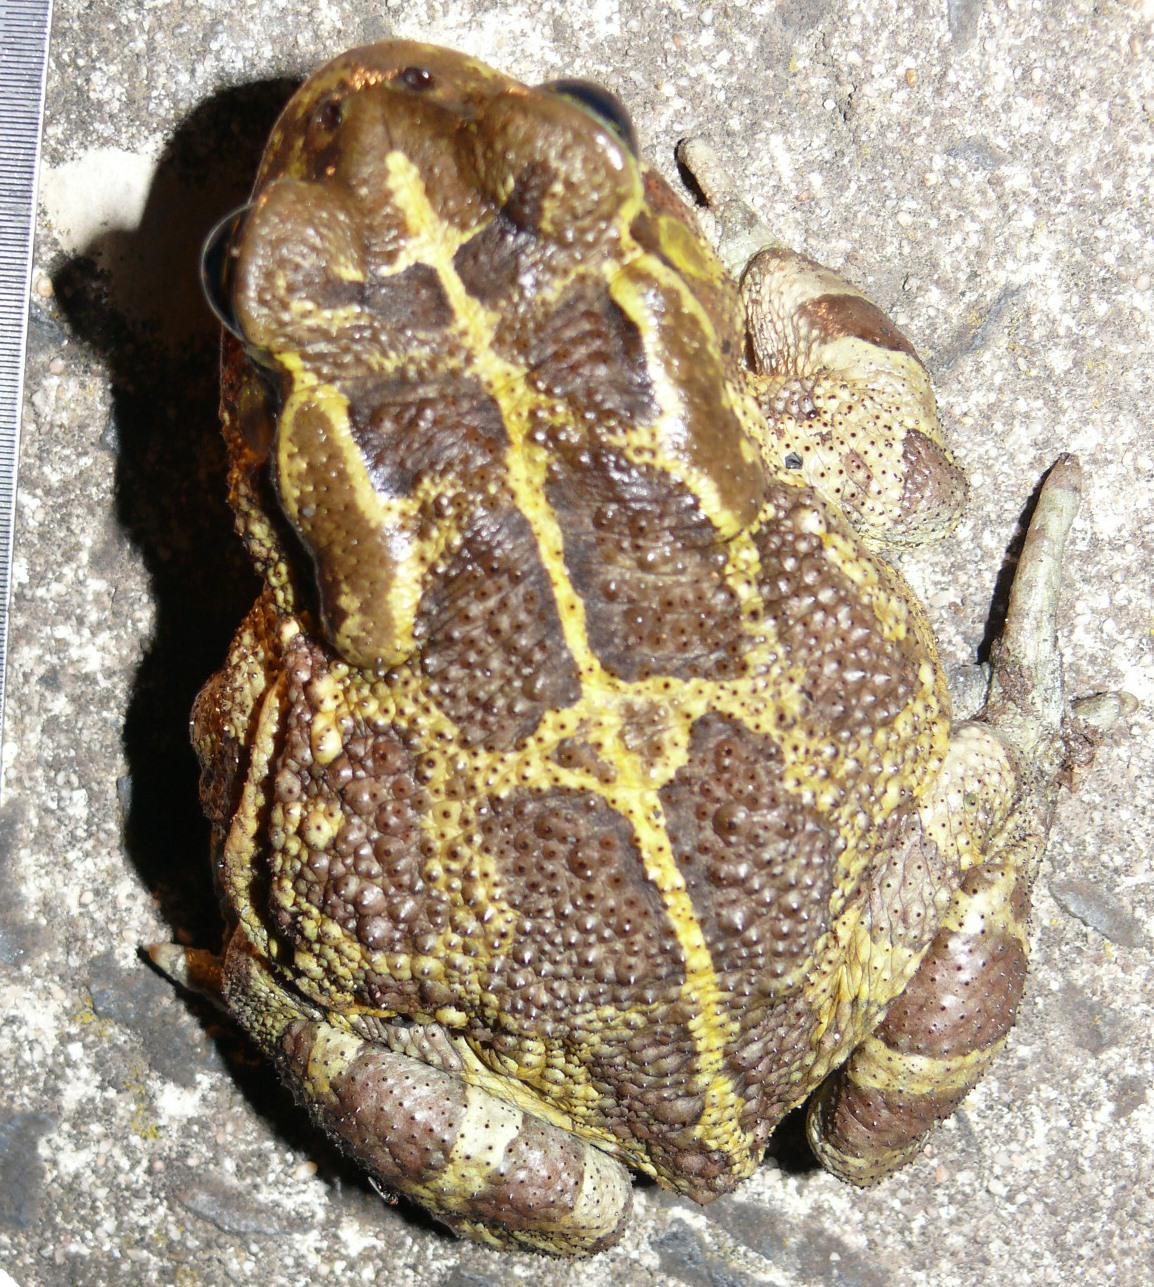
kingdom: Animalia
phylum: Chordata
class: Amphibia
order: Anura
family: Bufonidae
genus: Sclerophrys
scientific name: Sclerophrys pantherina
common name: Panther toad
